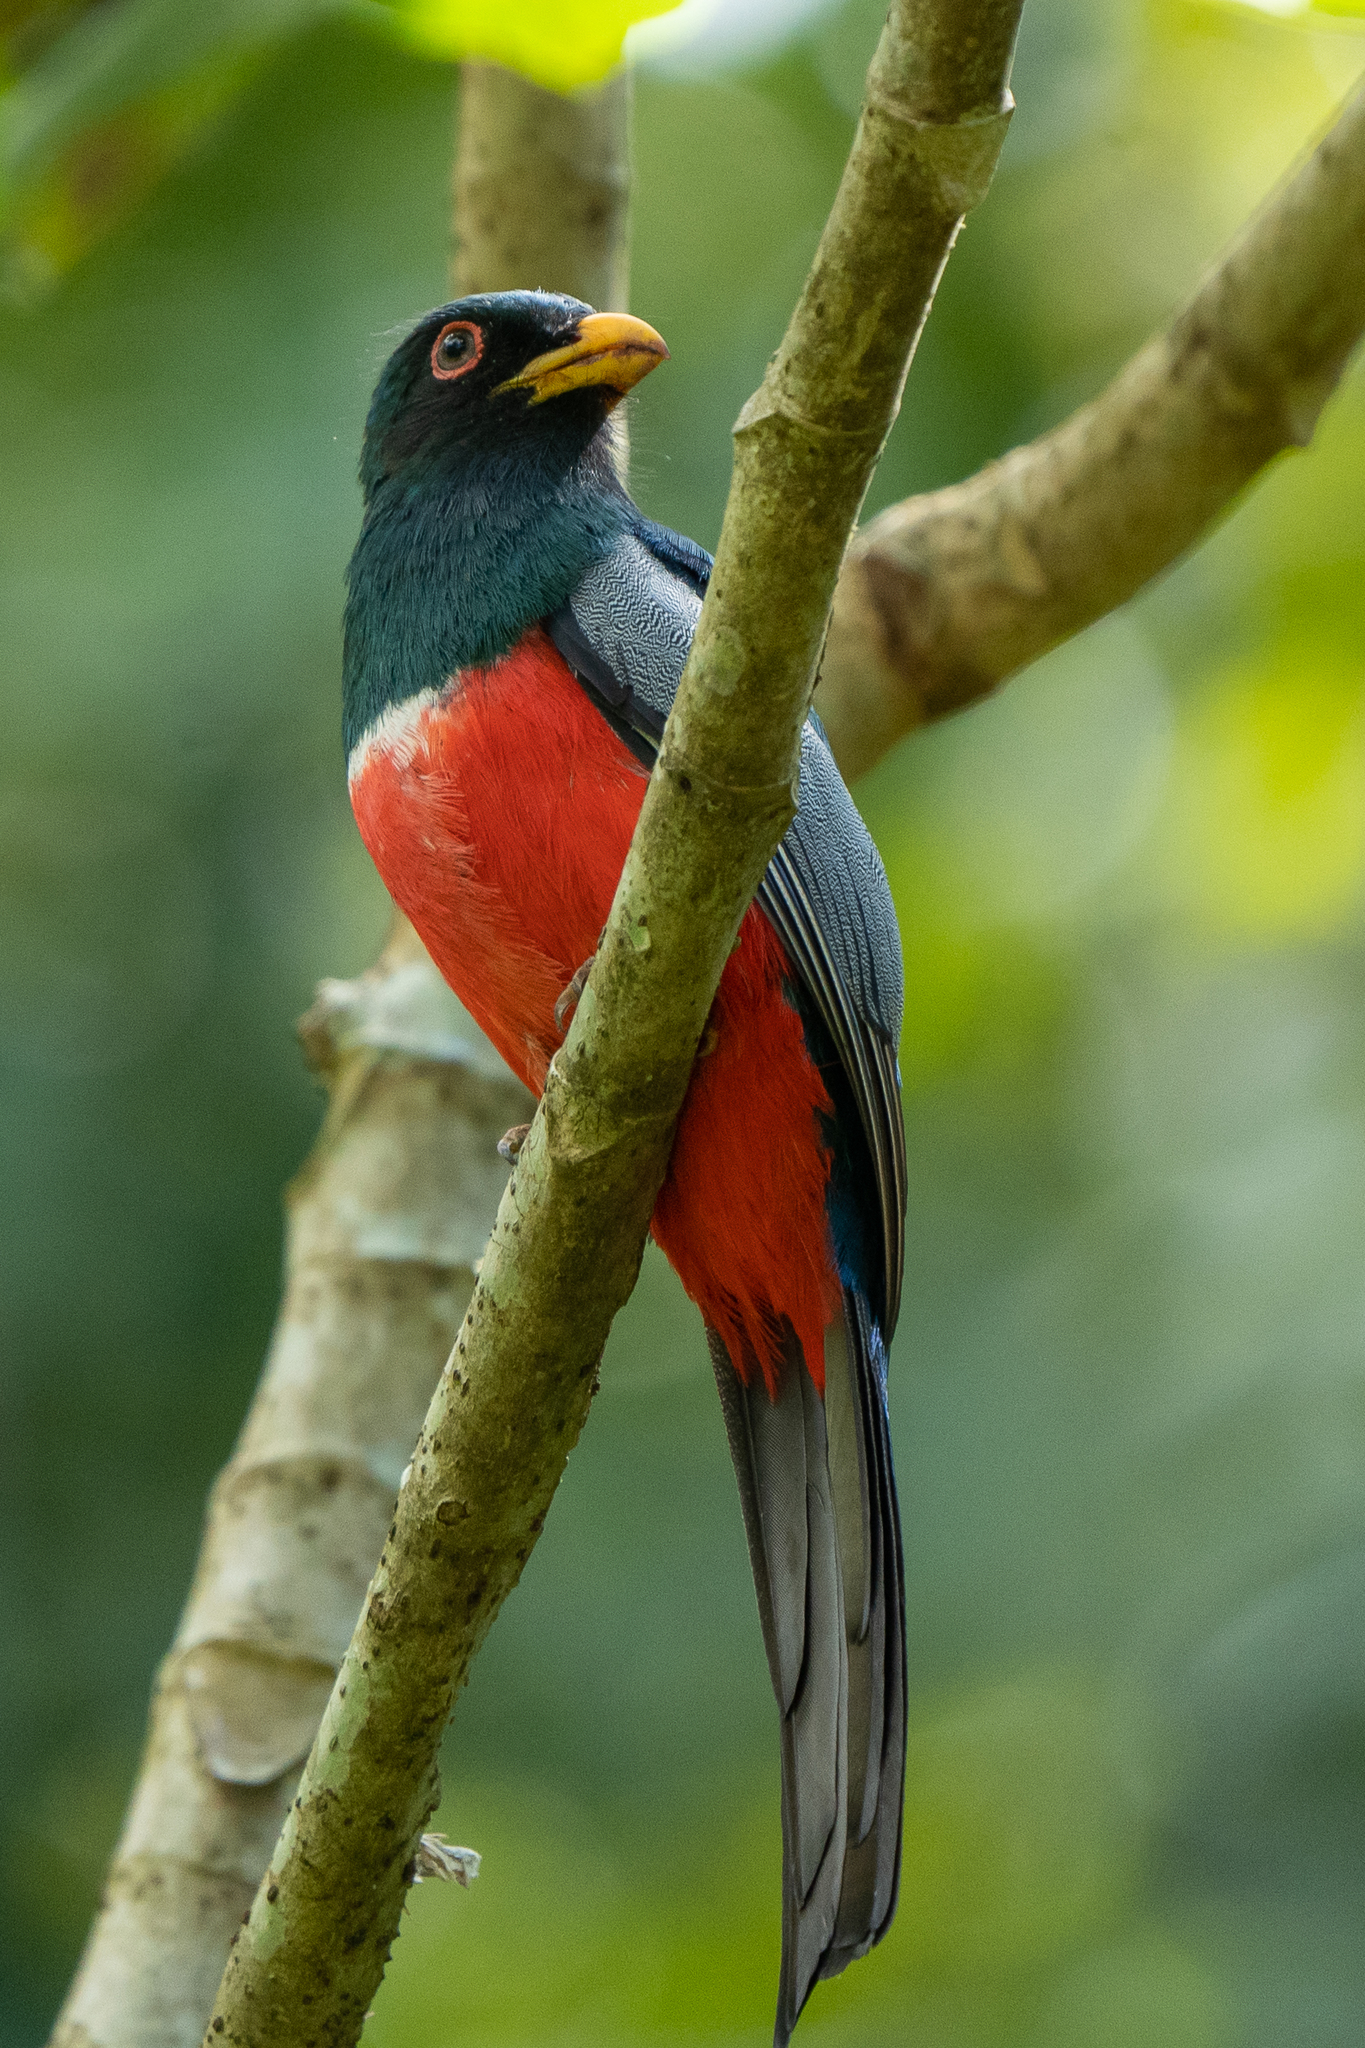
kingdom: Animalia
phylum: Chordata
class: Aves
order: Trogoniformes
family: Trogonidae
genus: Trogon
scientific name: Trogon melanurus
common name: Black-tailed trogon
